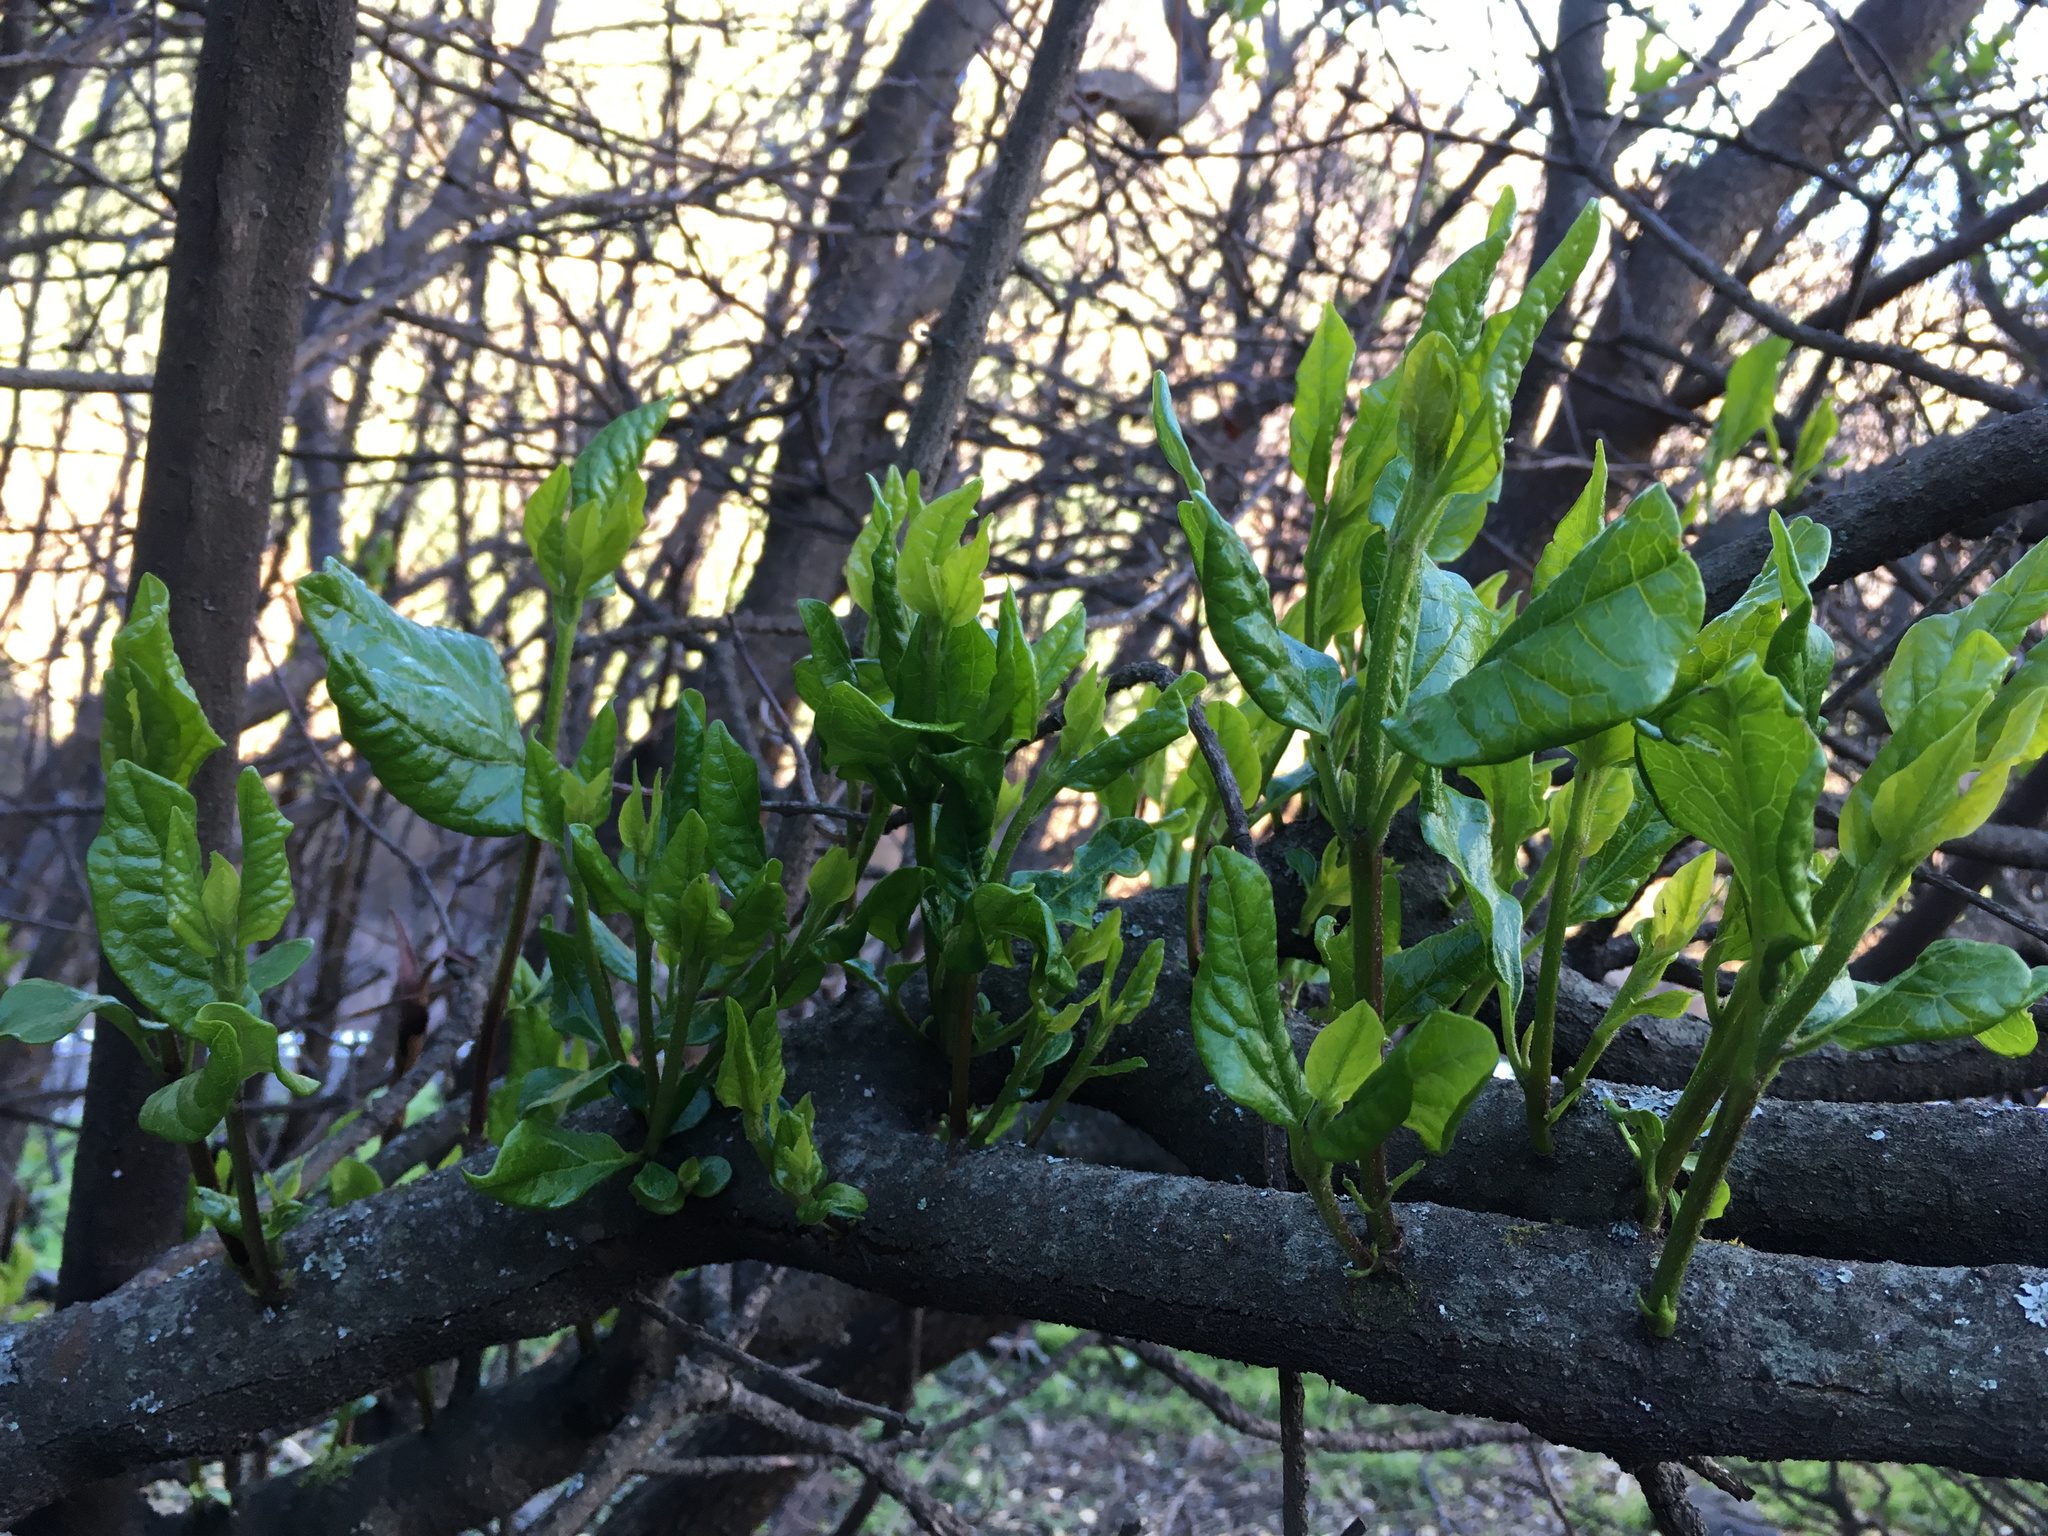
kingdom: Plantae
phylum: Tracheophyta
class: Magnoliopsida
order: Dipsacales
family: Viburnaceae
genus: Viburnum
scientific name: Viburnum tinus
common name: Laurustinus
